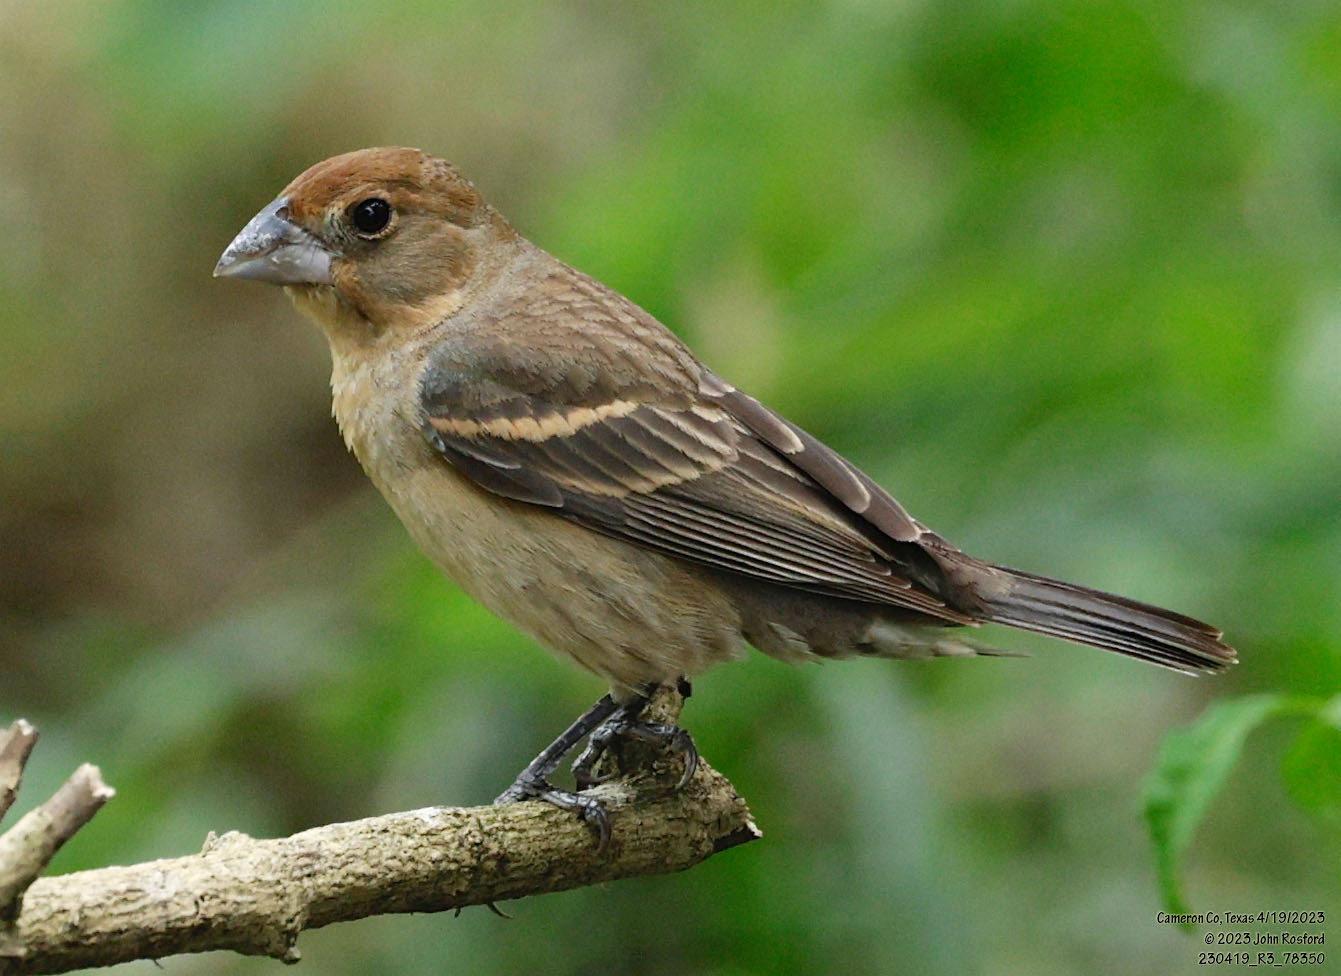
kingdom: Animalia
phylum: Chordata
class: Aves
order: Passeriformes
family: Cardinalidae
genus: Passerina
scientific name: Passerina caerulea
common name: Blue grosbeak
